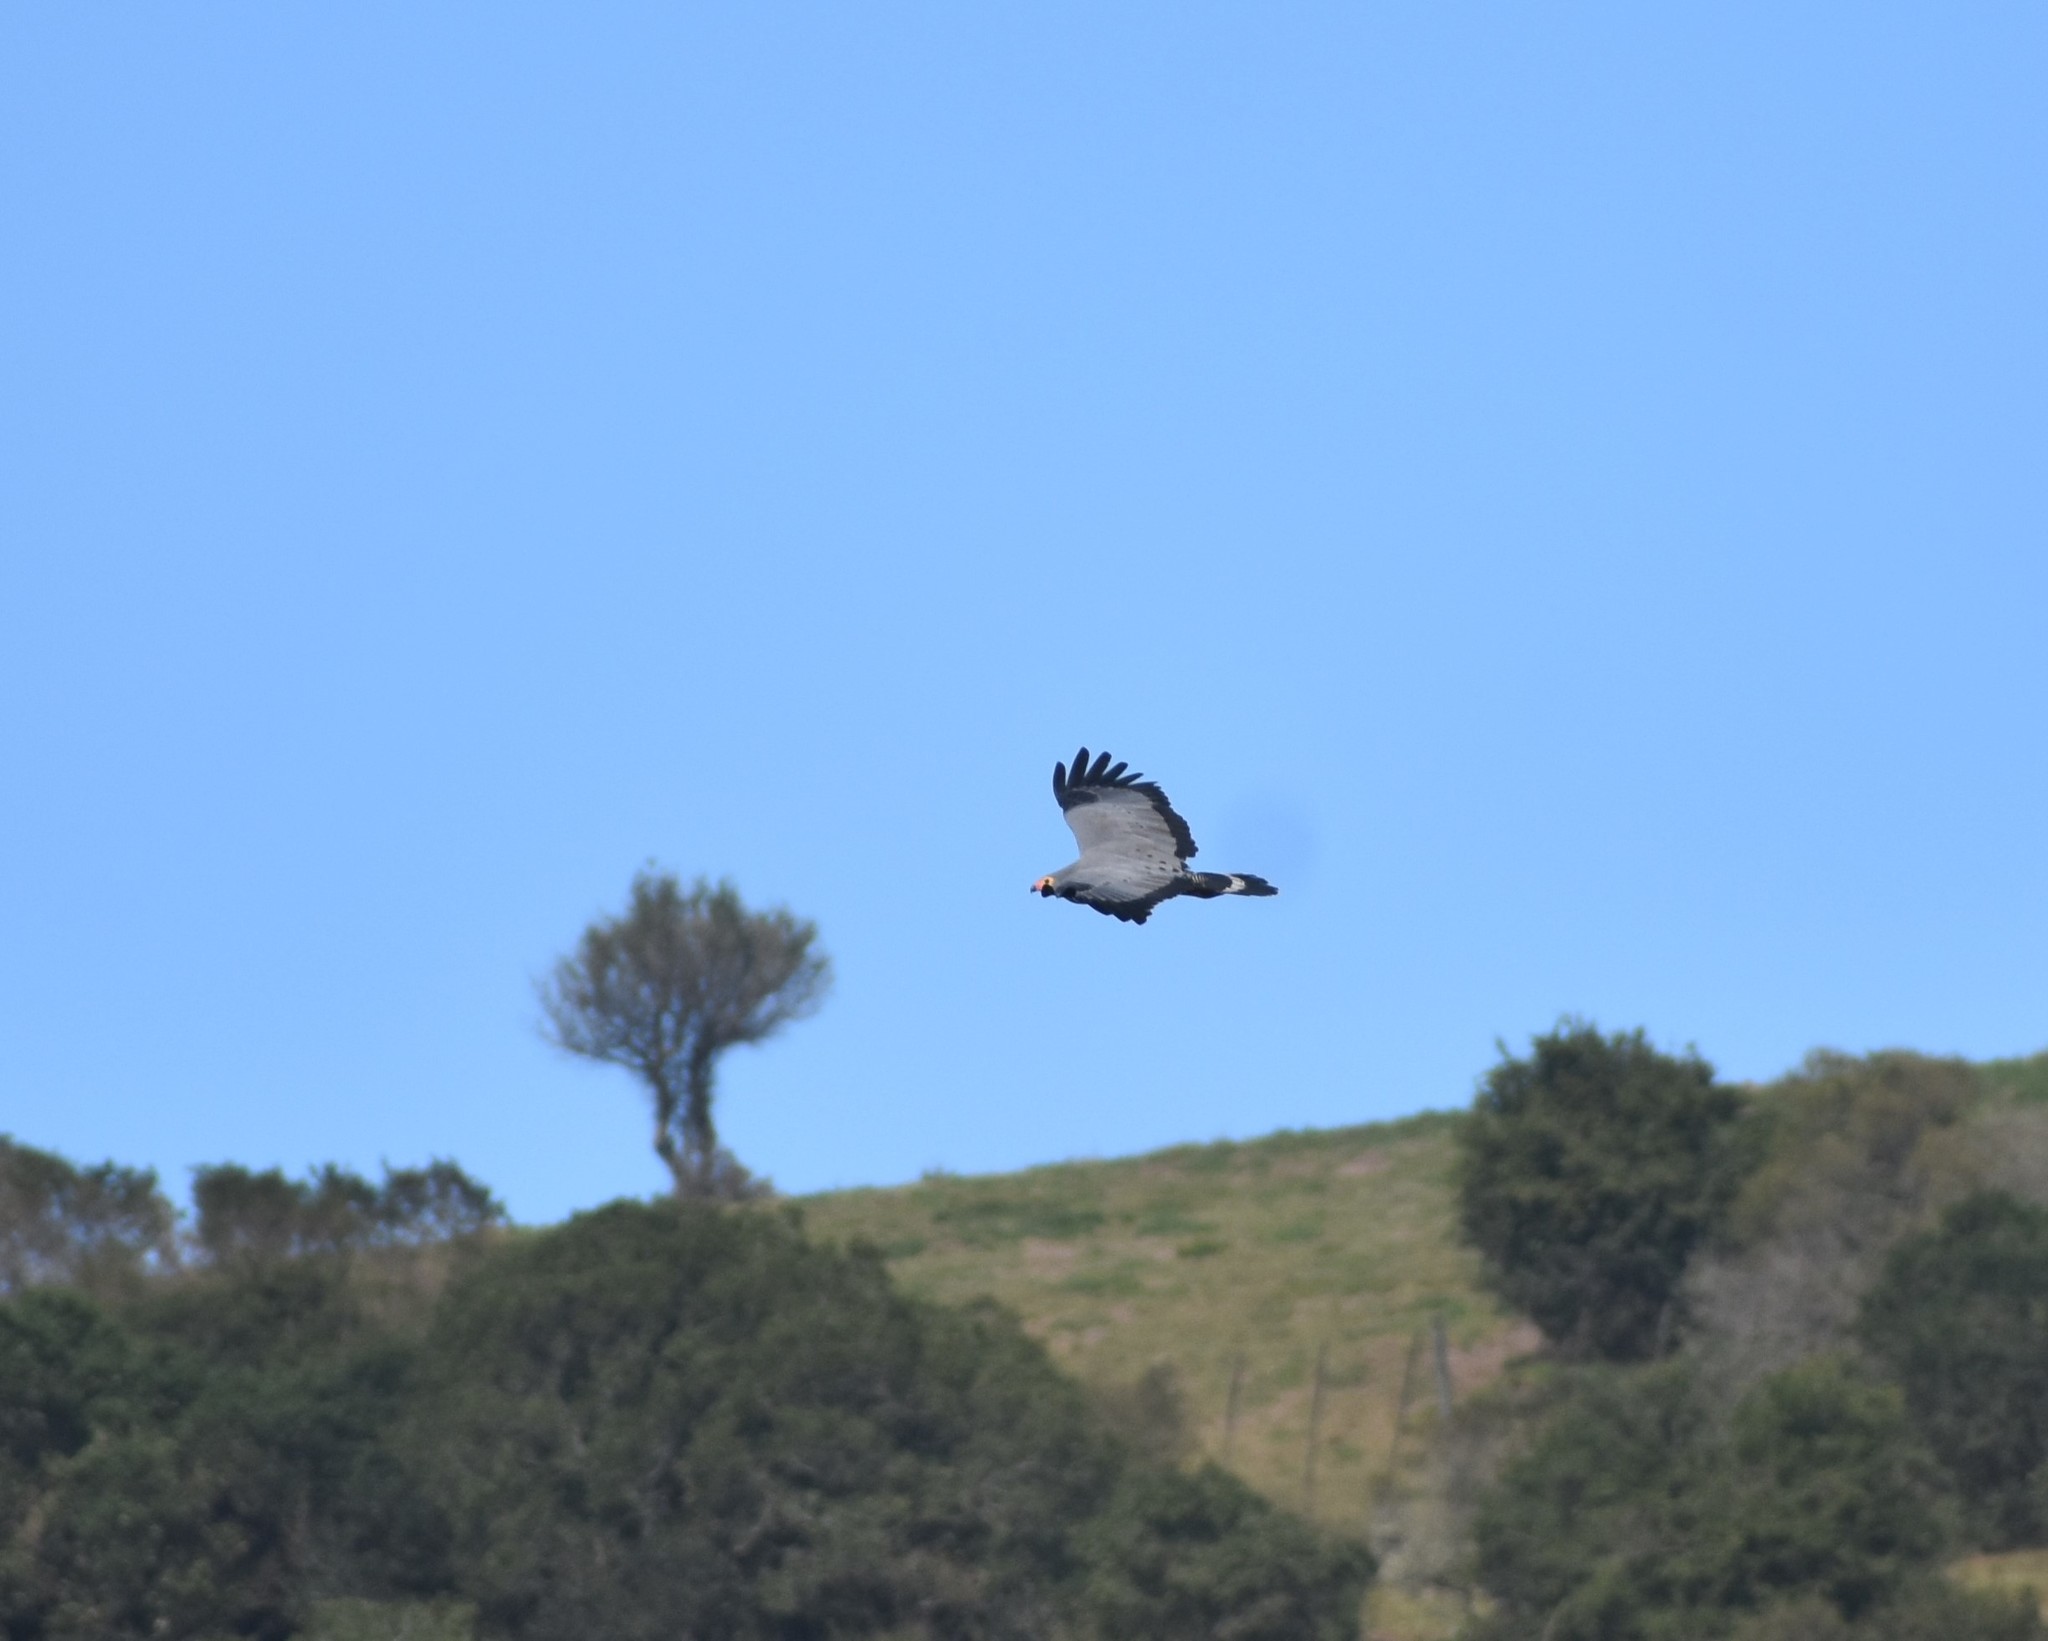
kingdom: Animalia
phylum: Chordata
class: Aves
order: Accipitriformes
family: Accipitridae
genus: Polyboroides
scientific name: Polyboroides typus
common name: African harrier-hawk
